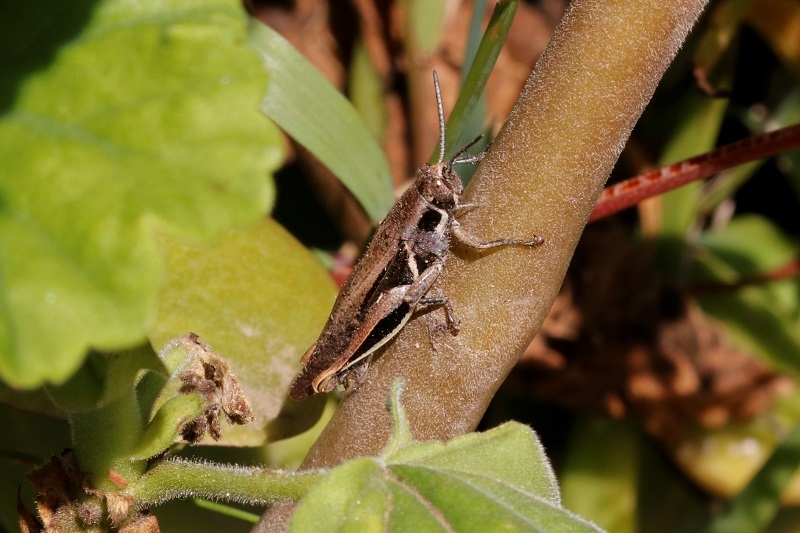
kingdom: Animalia
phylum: Arthropoda
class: Insecta
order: Orthoptera
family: Acrididae
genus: Vitticatantops
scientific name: Vitticatantops humeralis
